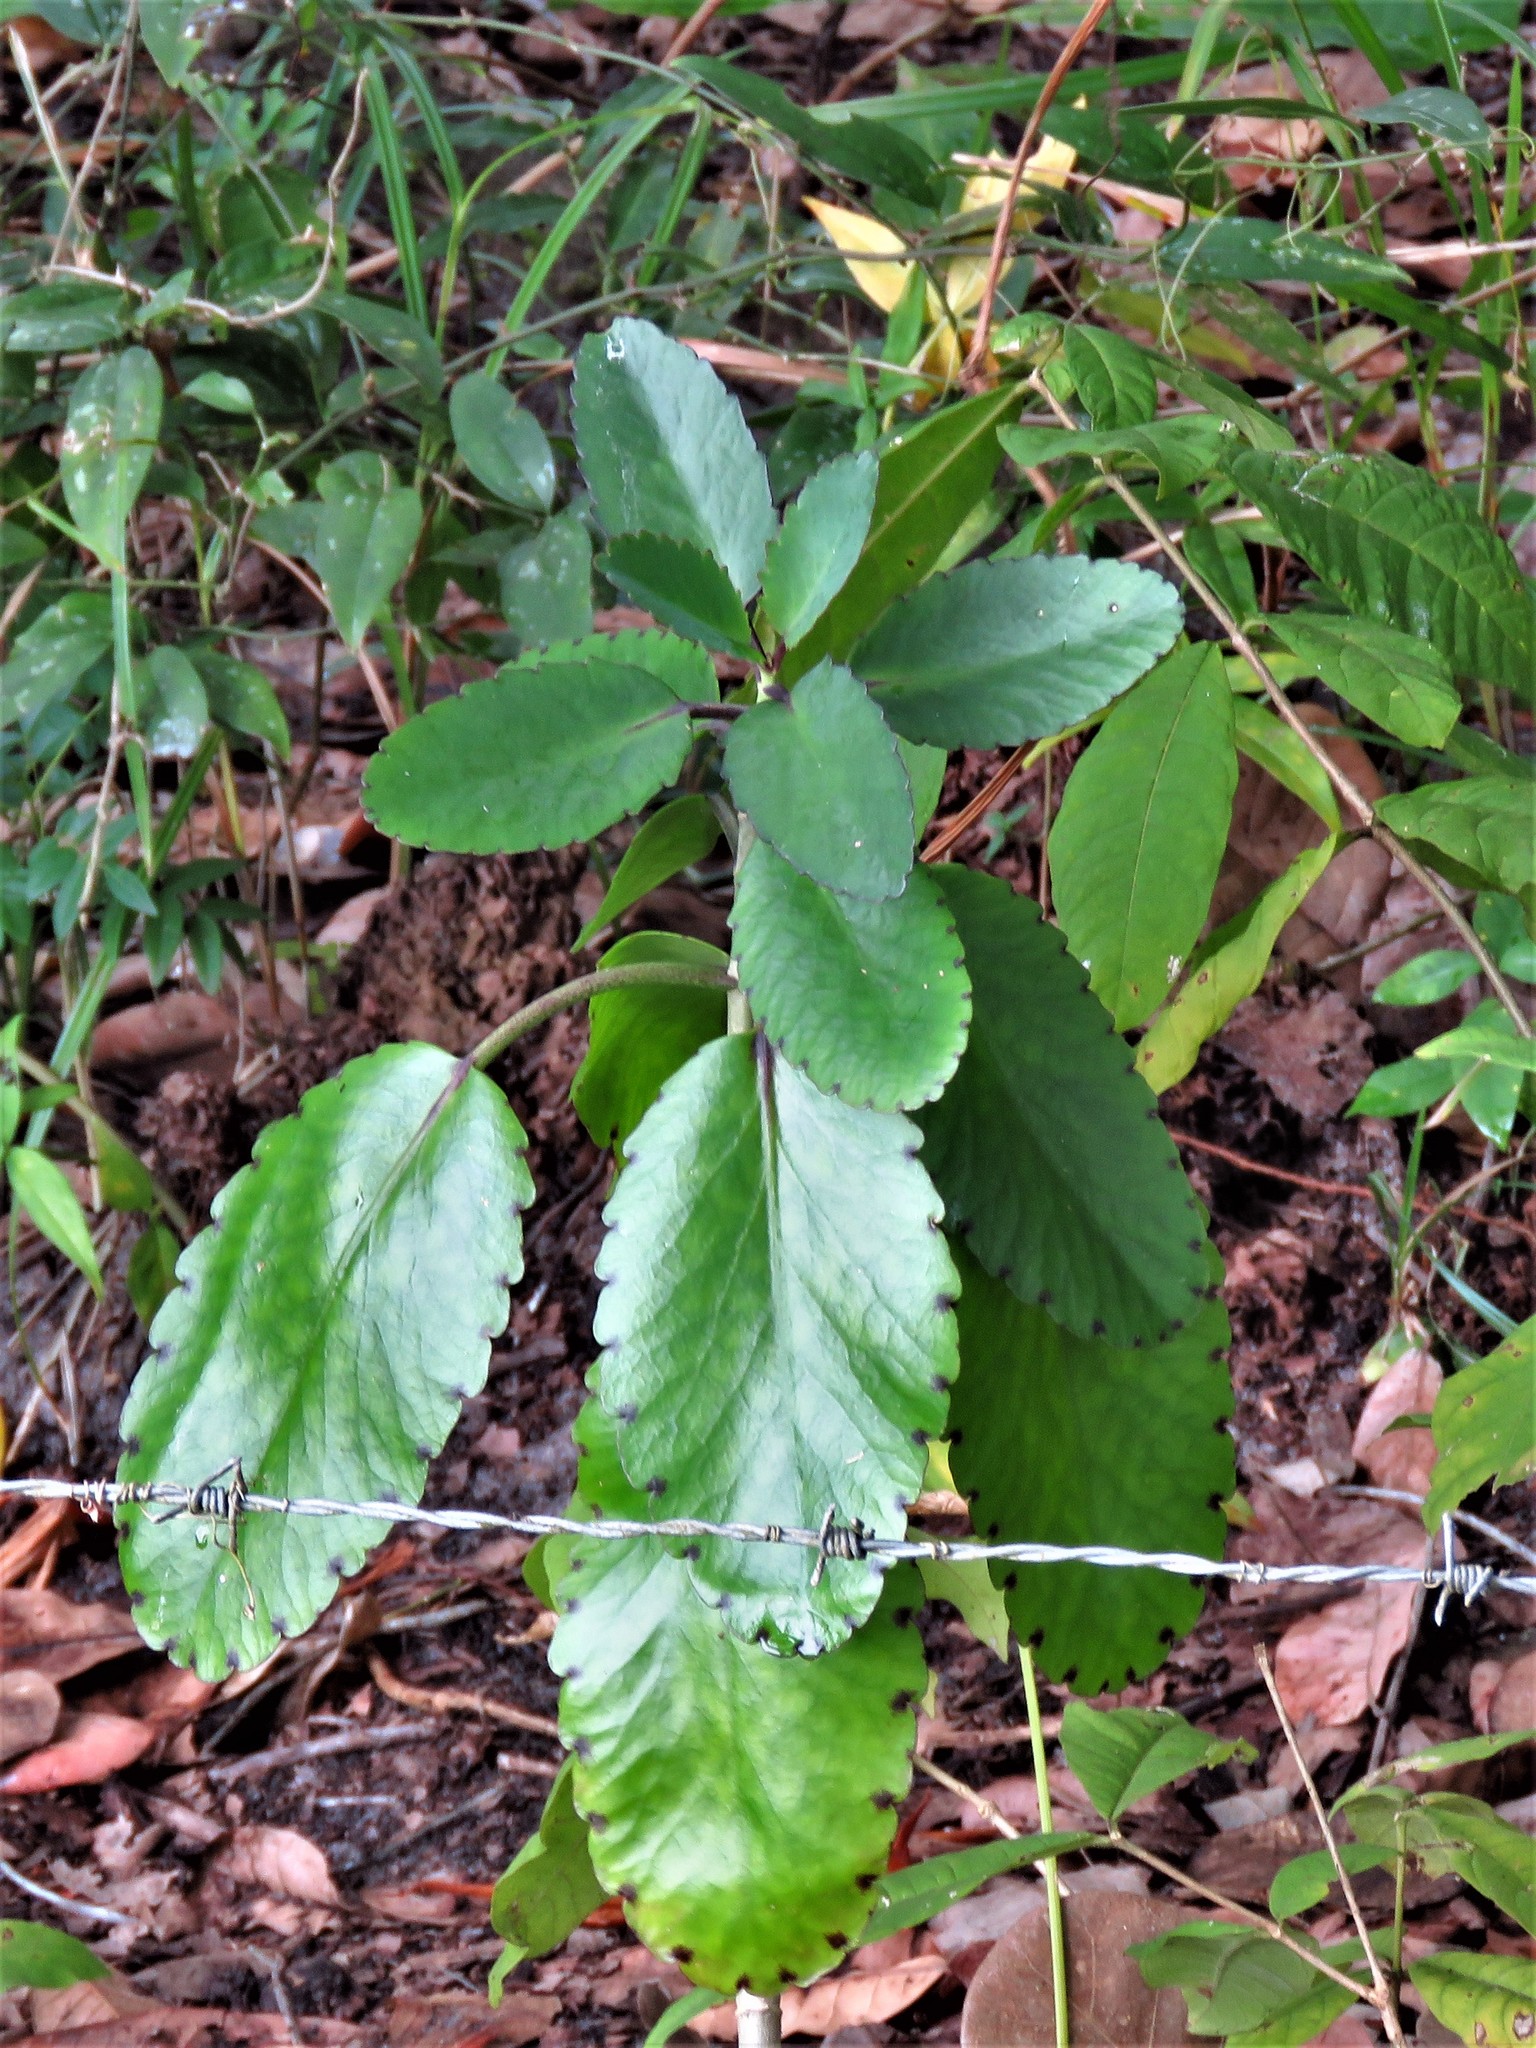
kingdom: Plantae
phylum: Tracheophyta
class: Magnoliopsida
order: Saxifragales
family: Crassulaceae
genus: Kalanchoe
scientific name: Kalanchoe pinnata
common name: Cathedral bells
